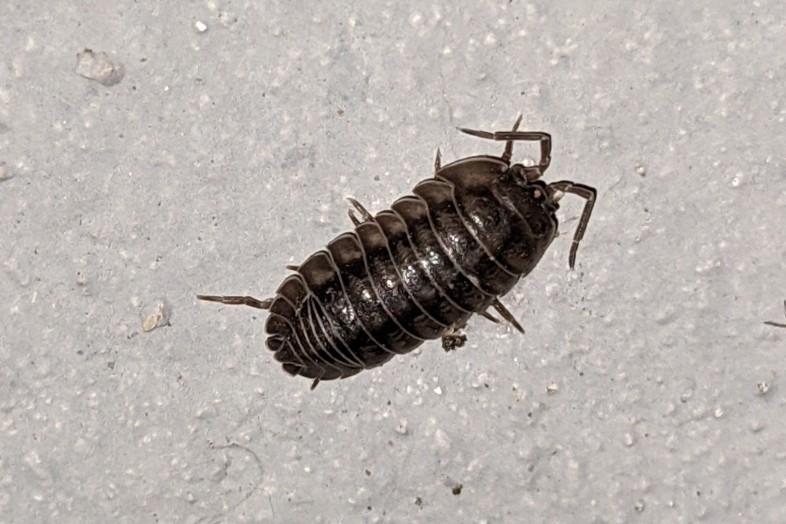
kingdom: Animalia
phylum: Arthropoda
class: Malacostraca
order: Isopoda
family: Armadillidiidae
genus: Armadillidium
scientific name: Armadillidium nasatum
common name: Isopod
